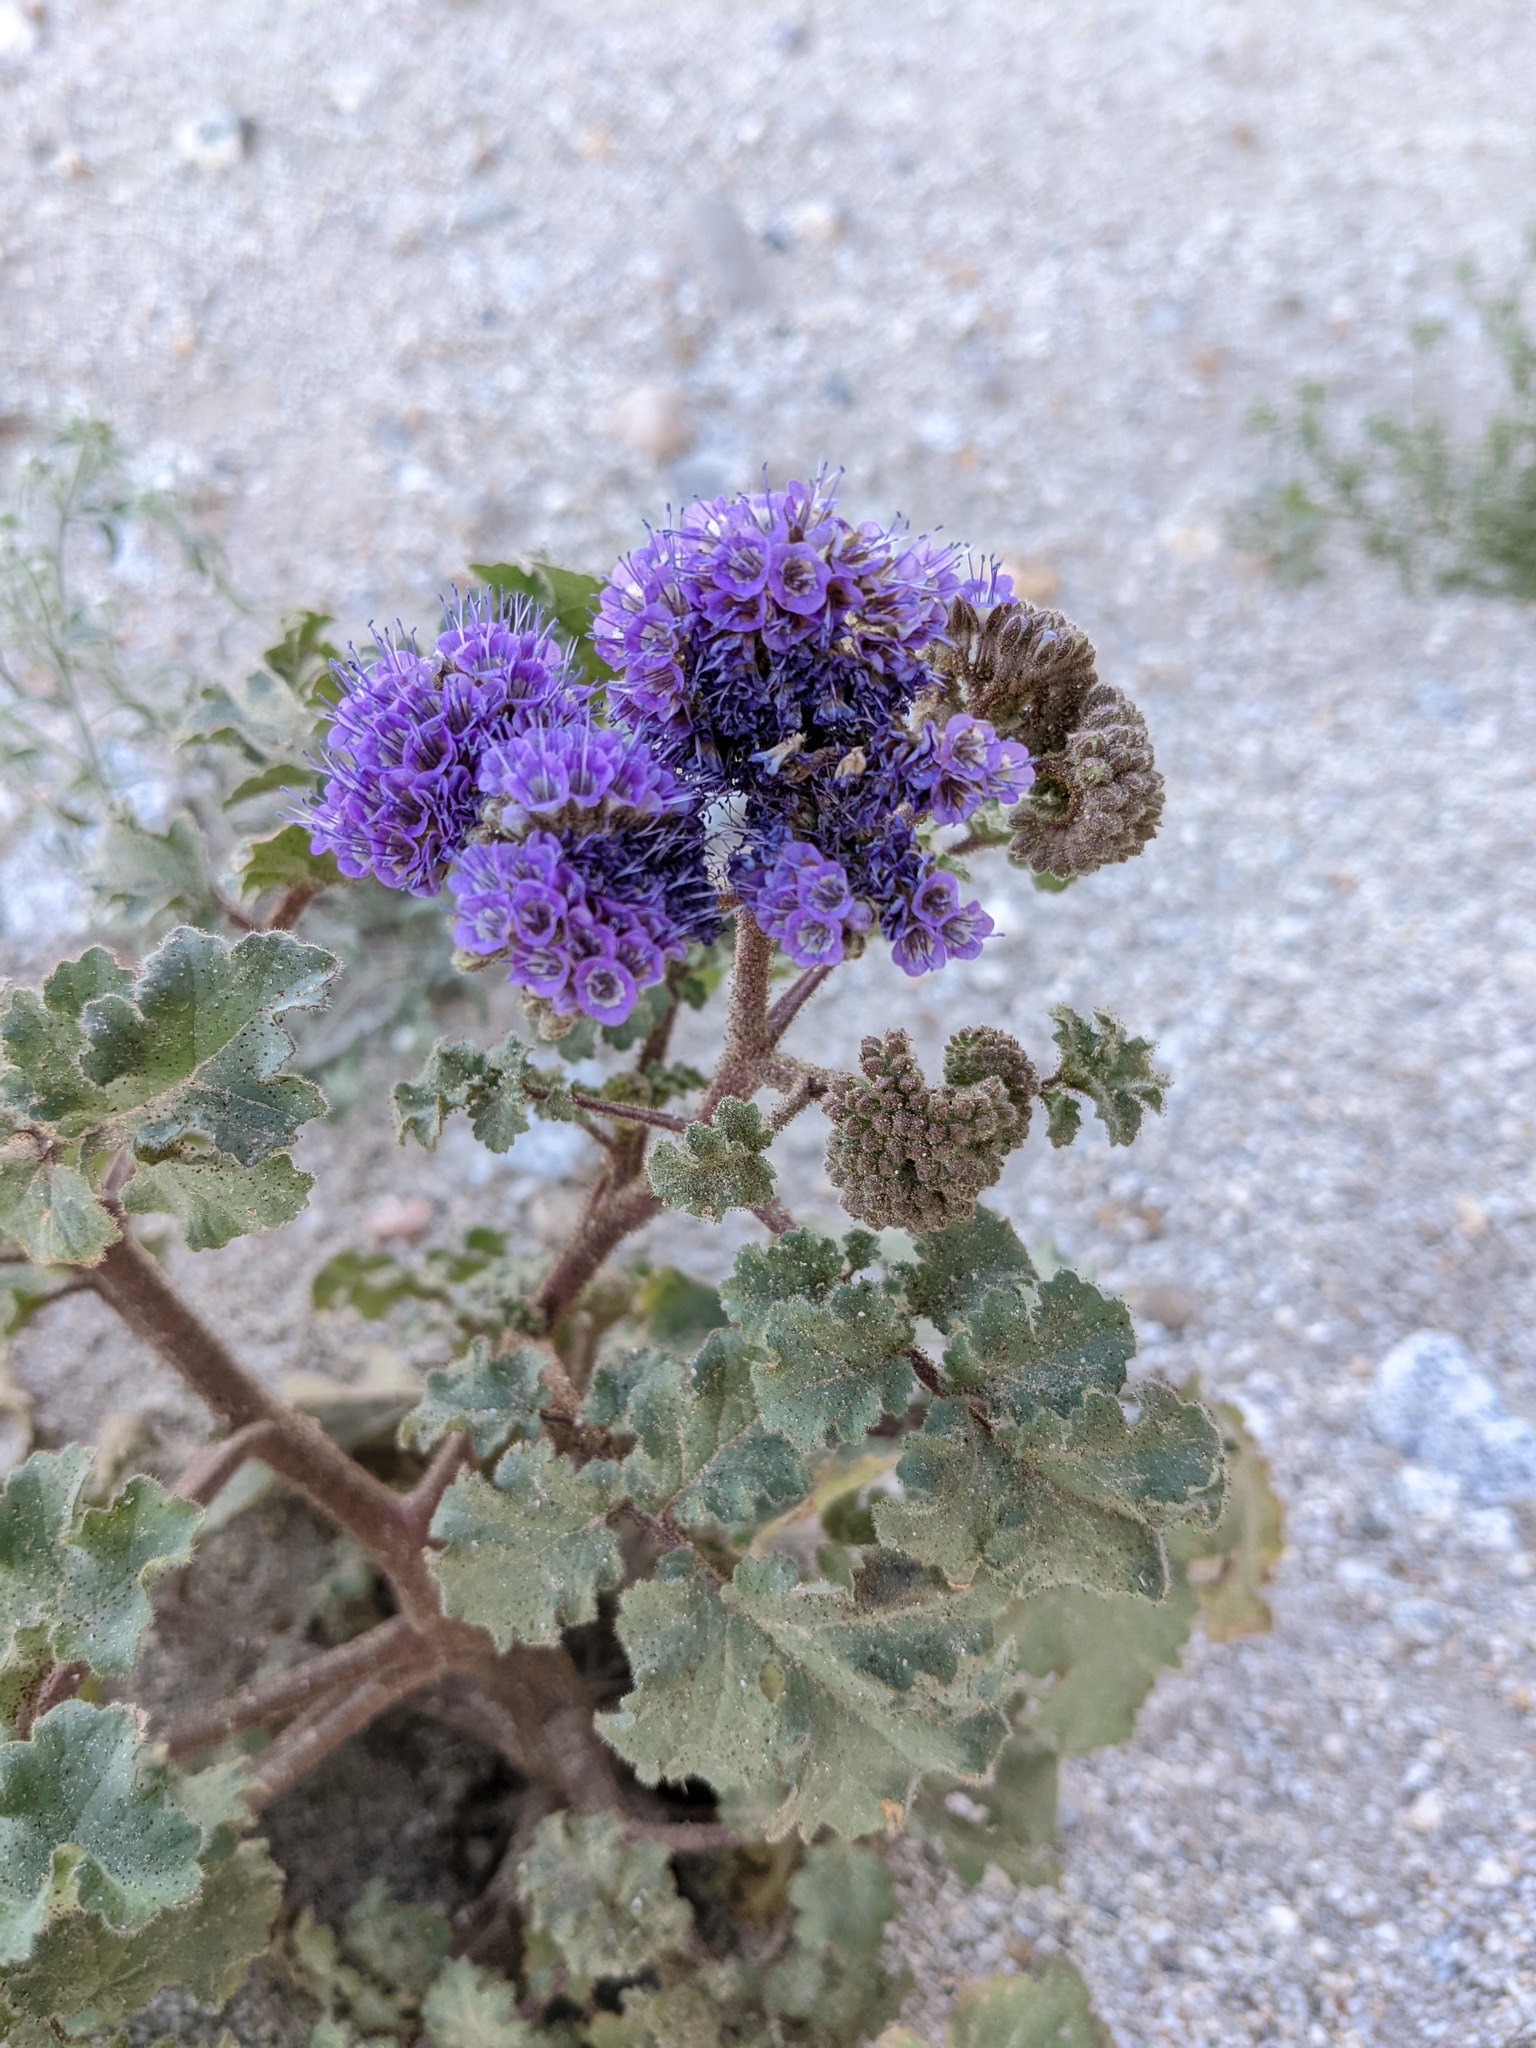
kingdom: Plantae
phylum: Tracheophyta
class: Magnoliopsida
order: Boraginales
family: Hydrophyllaceae
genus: Phacelia
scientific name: Phacelia pedicellata
